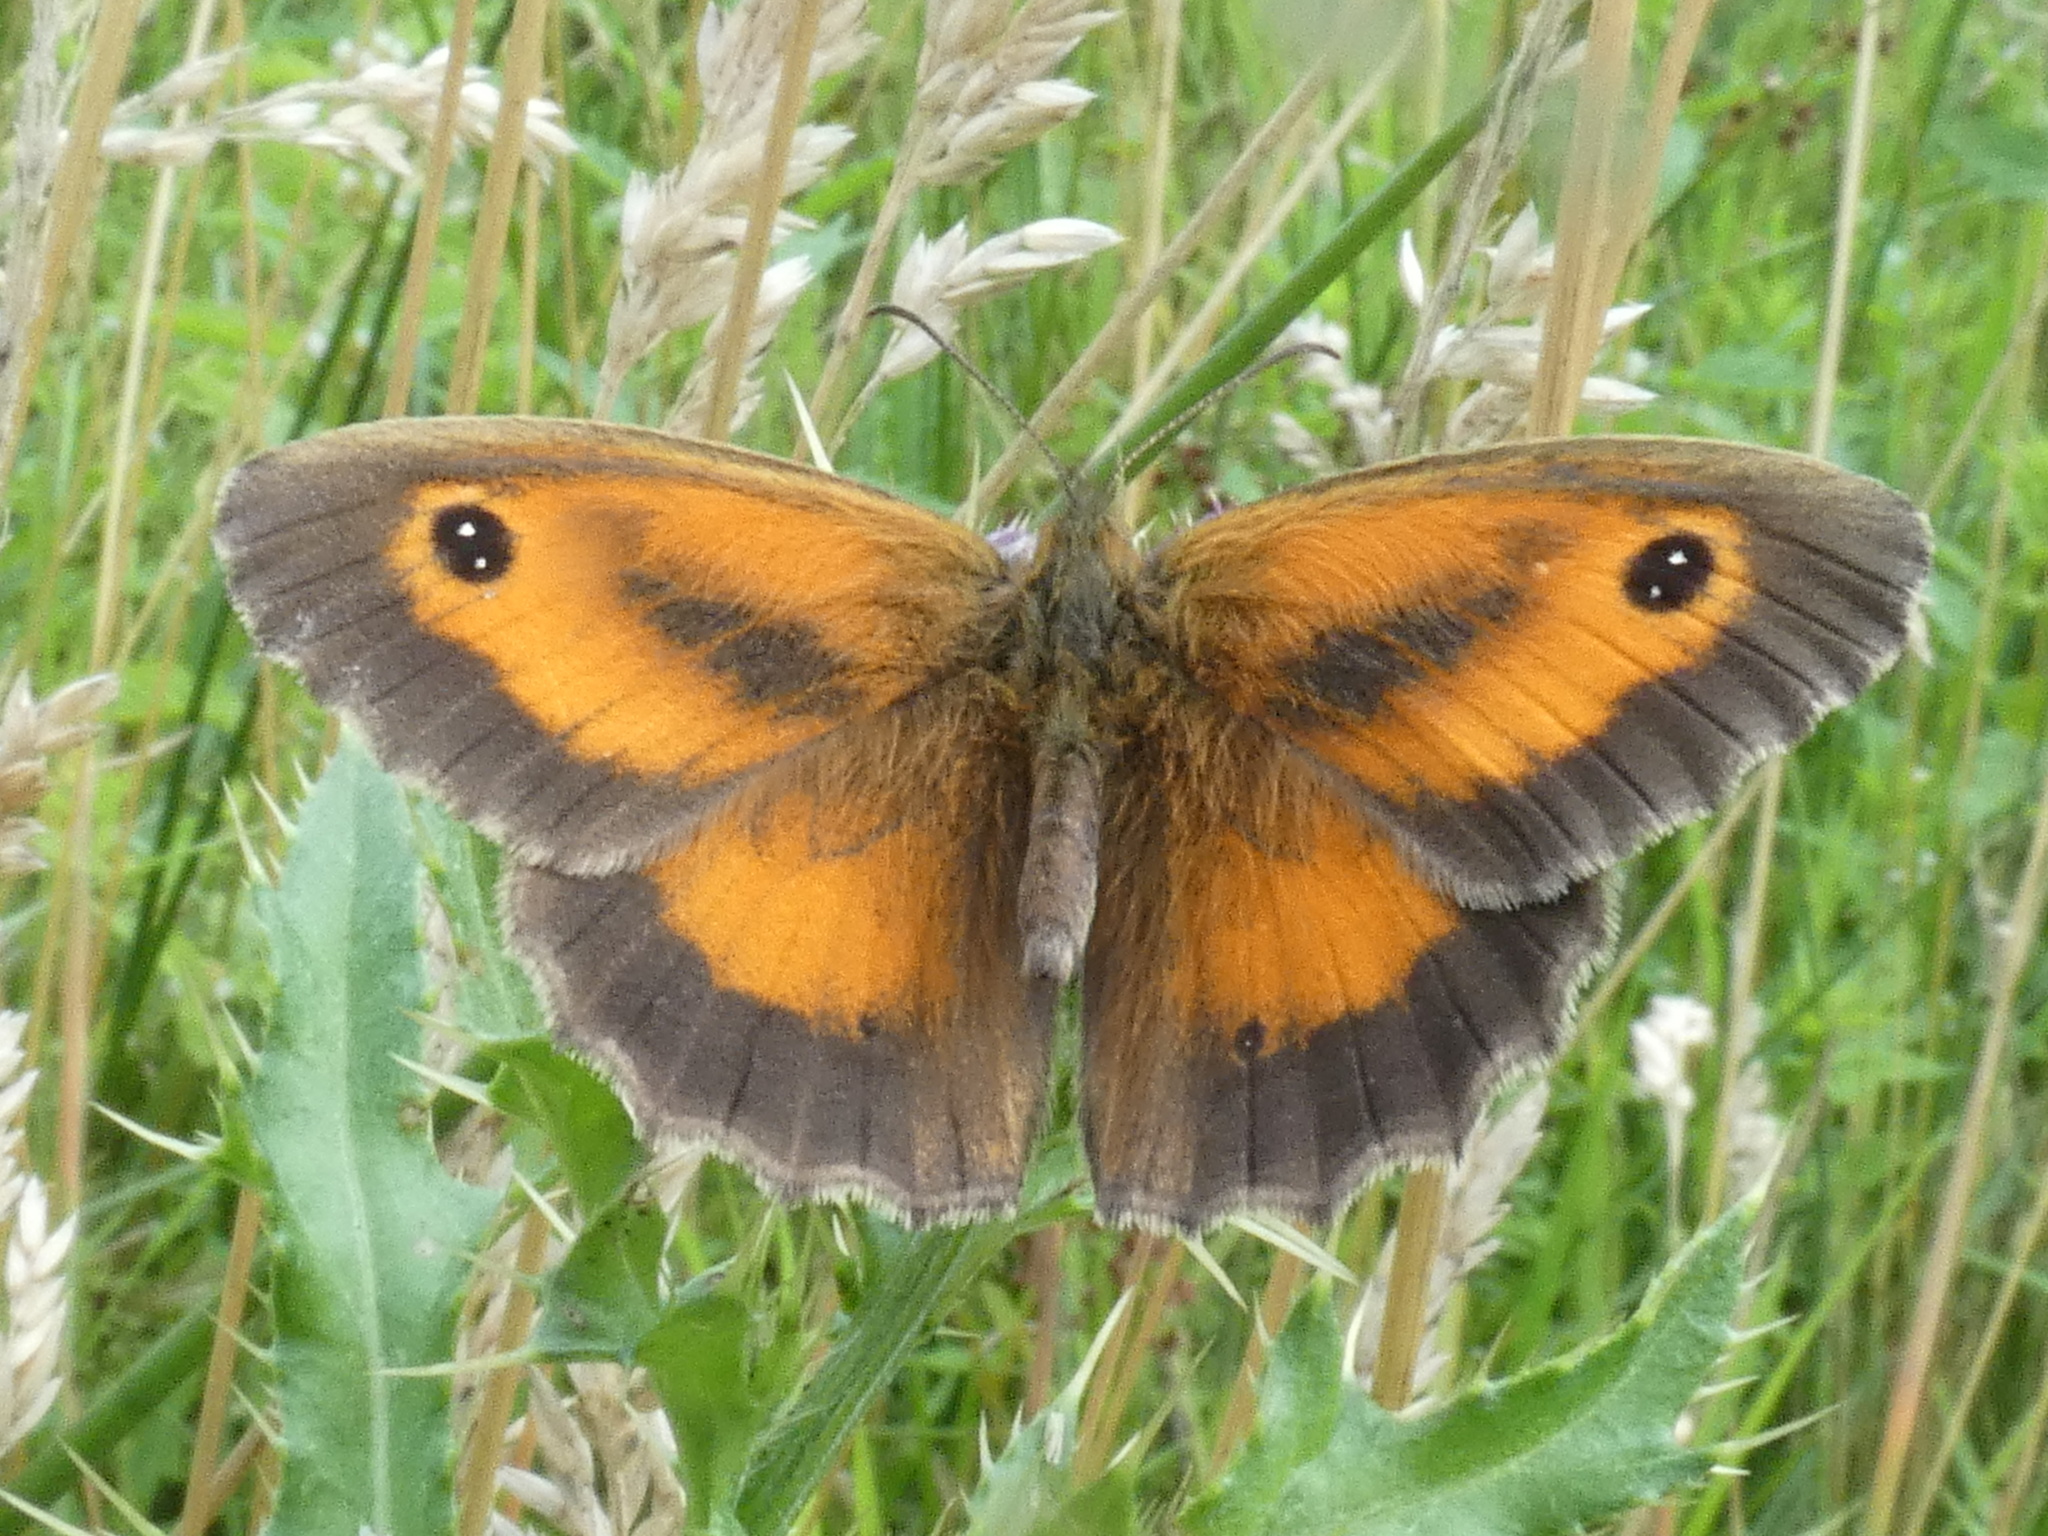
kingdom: Animalia
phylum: Arthropoda
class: Insecta
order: Lepidoptera
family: Nymphalidae
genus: Pyronia
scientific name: Pyronia tithonus
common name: Gatekeeper
